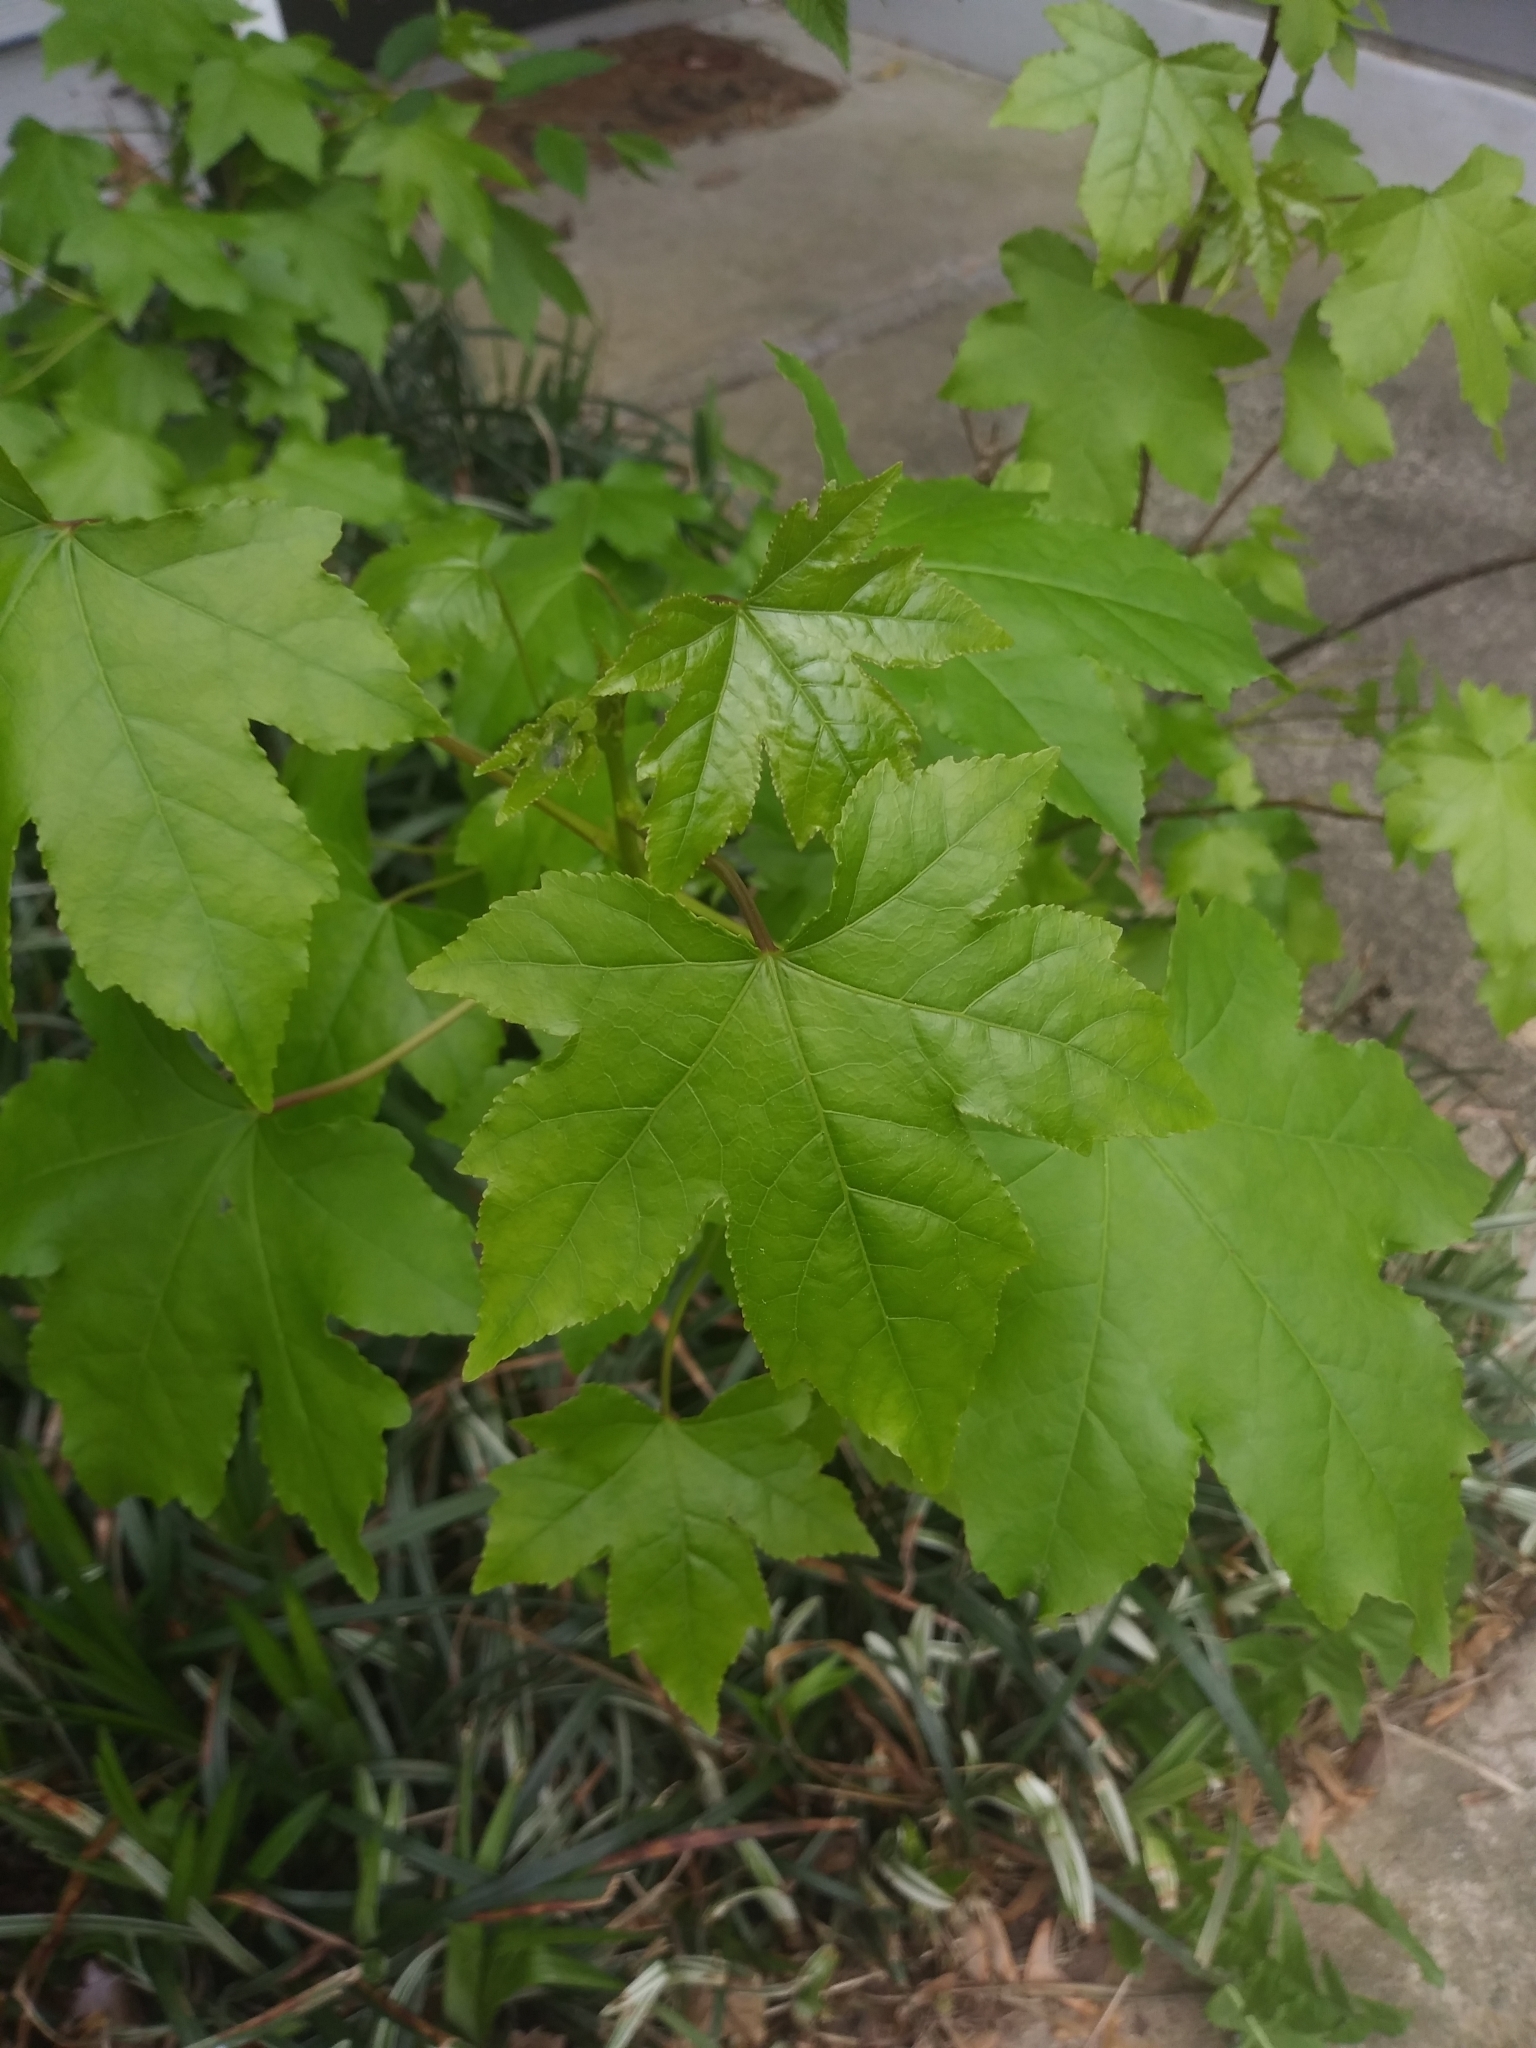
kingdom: Plantae
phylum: Tracheophyta
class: Magnoliopsida
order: Saxifragales
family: Altingiaceae
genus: Liquidambar
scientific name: Liquidambar styraciflua
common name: Sweet gum
